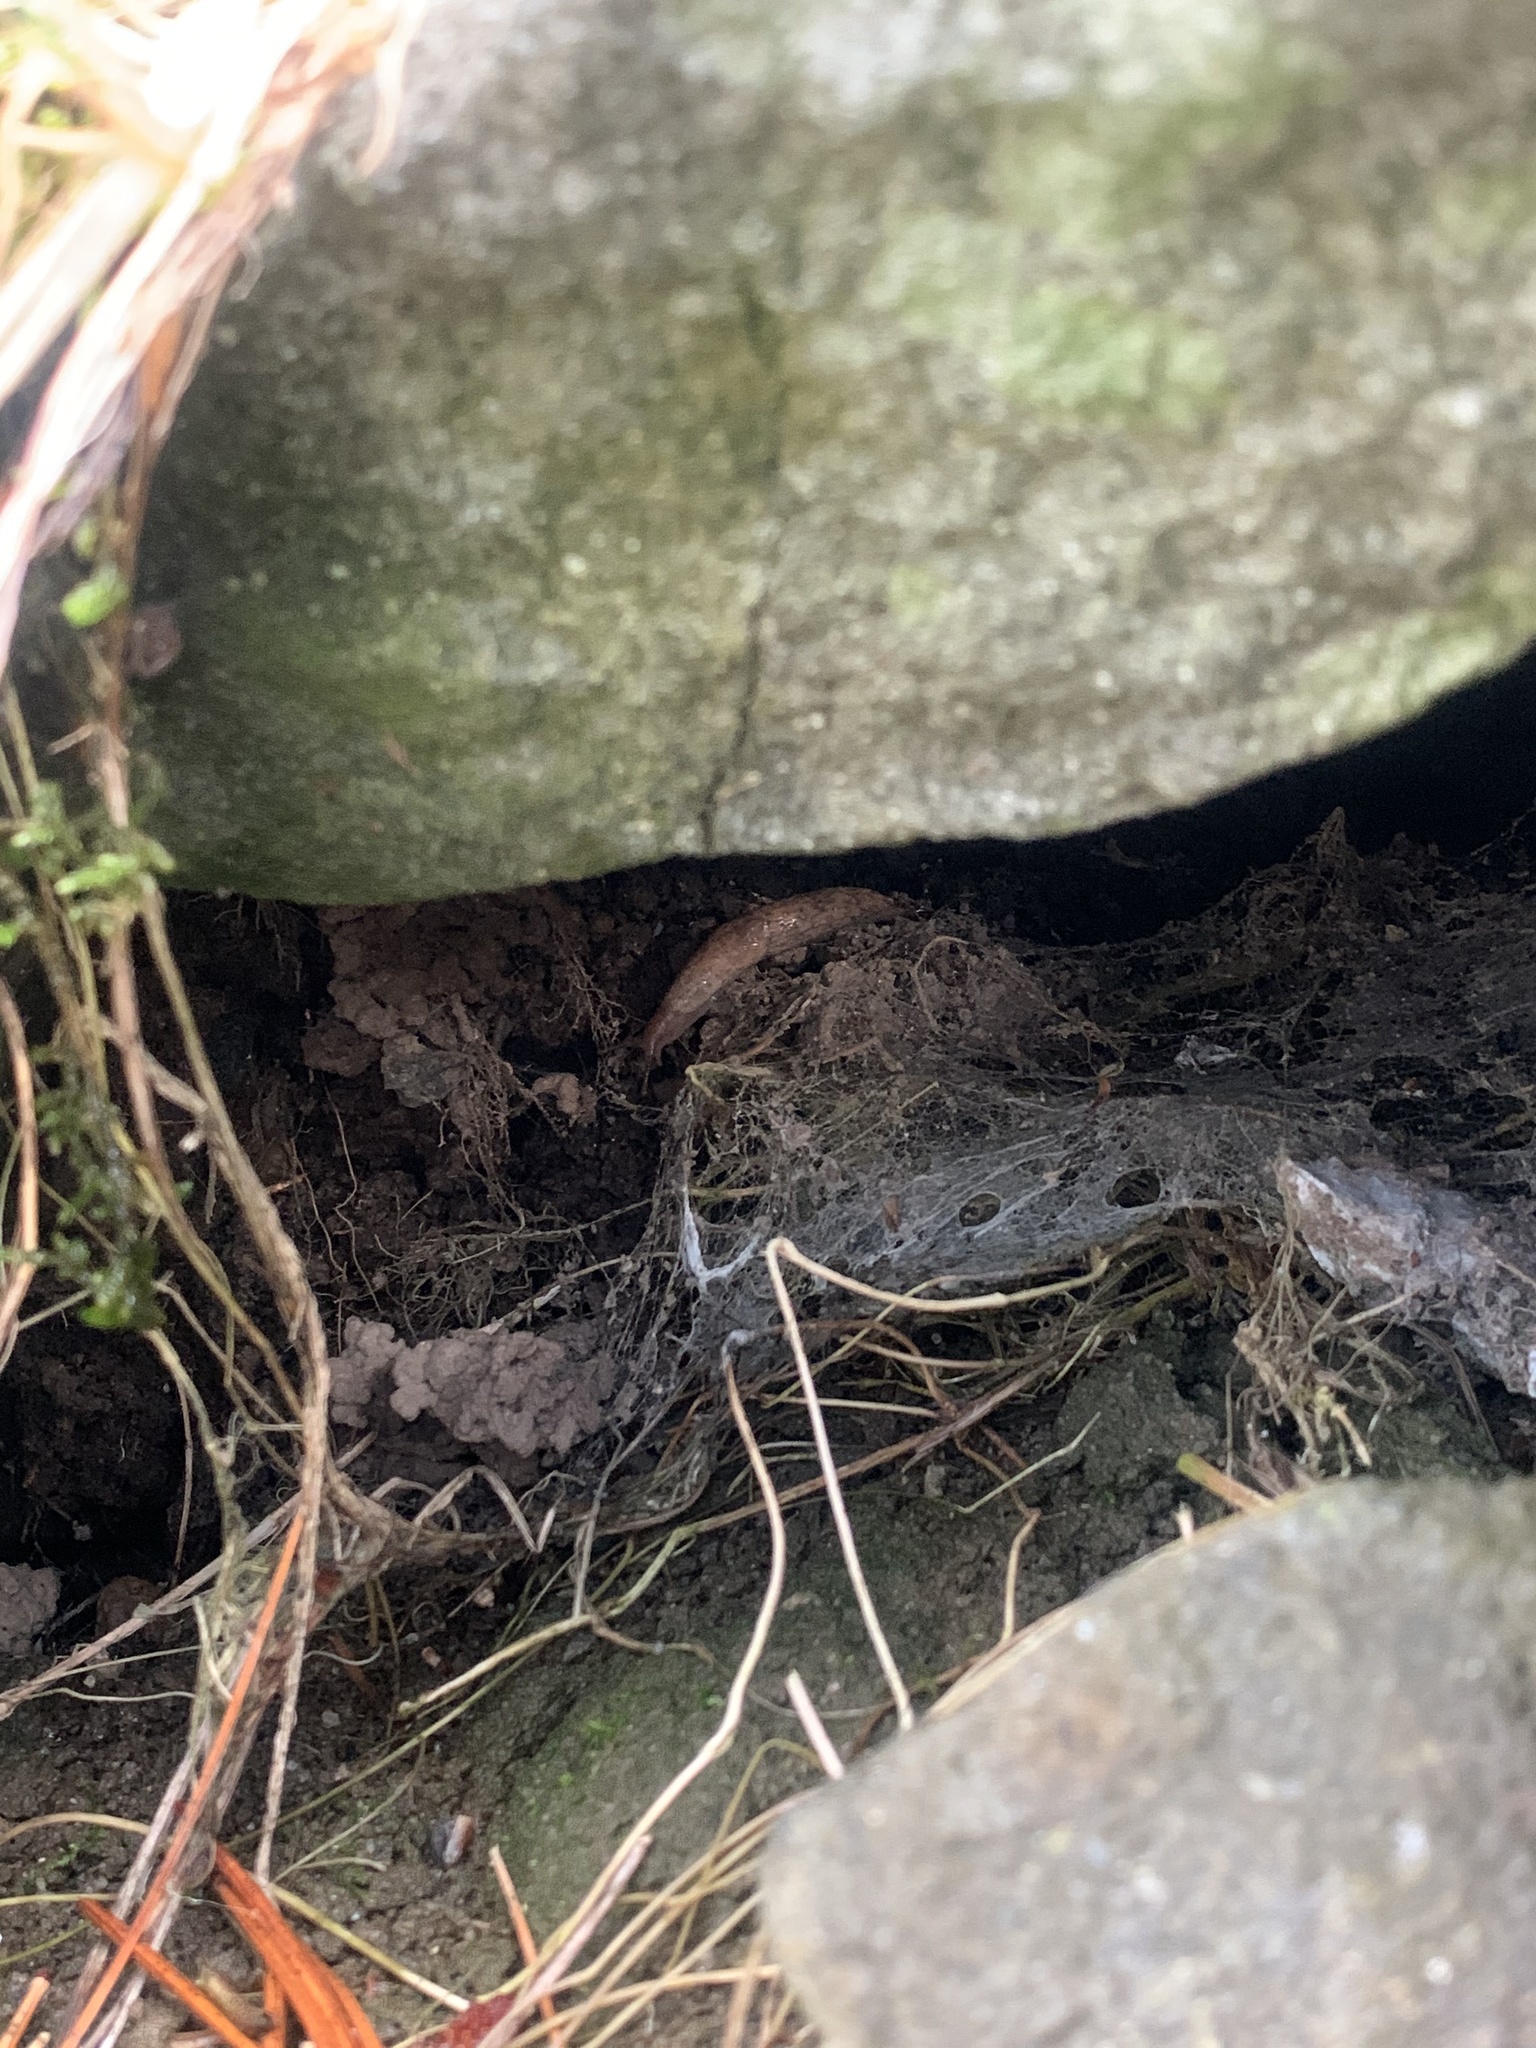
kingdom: Animalia
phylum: Mollusca
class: Gastropoda
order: Stylommatophora
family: Agriolimacidae
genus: Deroceras
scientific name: Deroceras reticulatum
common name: Gray field slug
